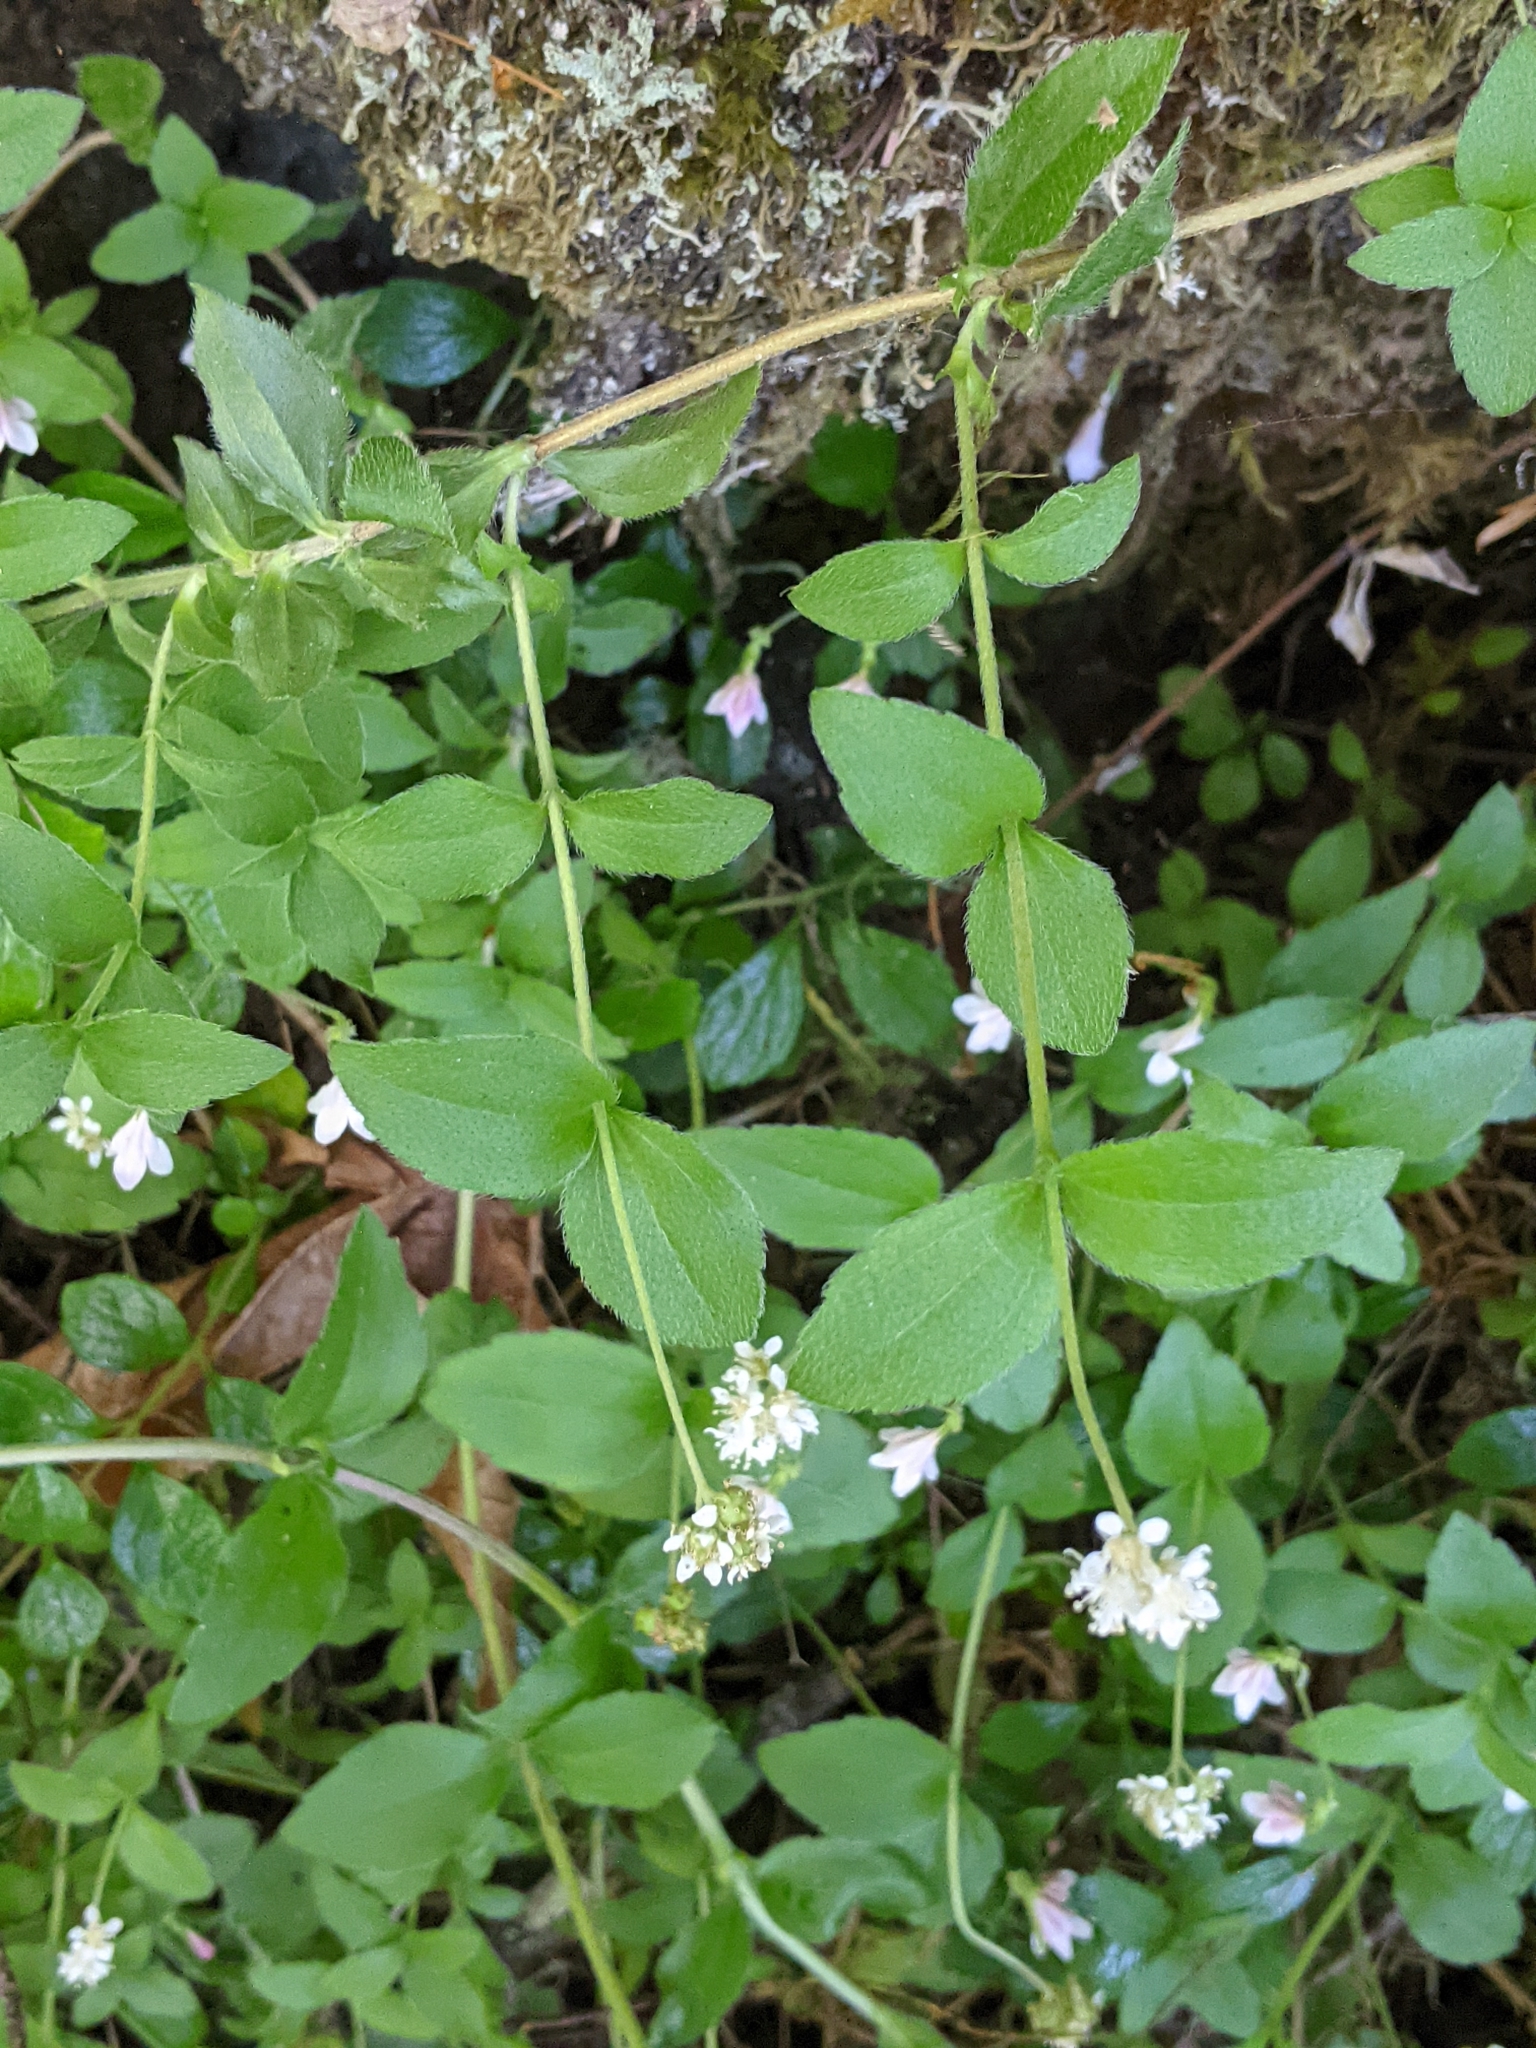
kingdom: Plantae
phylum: Tracheophyta
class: Magnoliopsida
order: Cornales
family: Hydrangeaceae
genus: Whipplea
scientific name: Whipplea modesta
